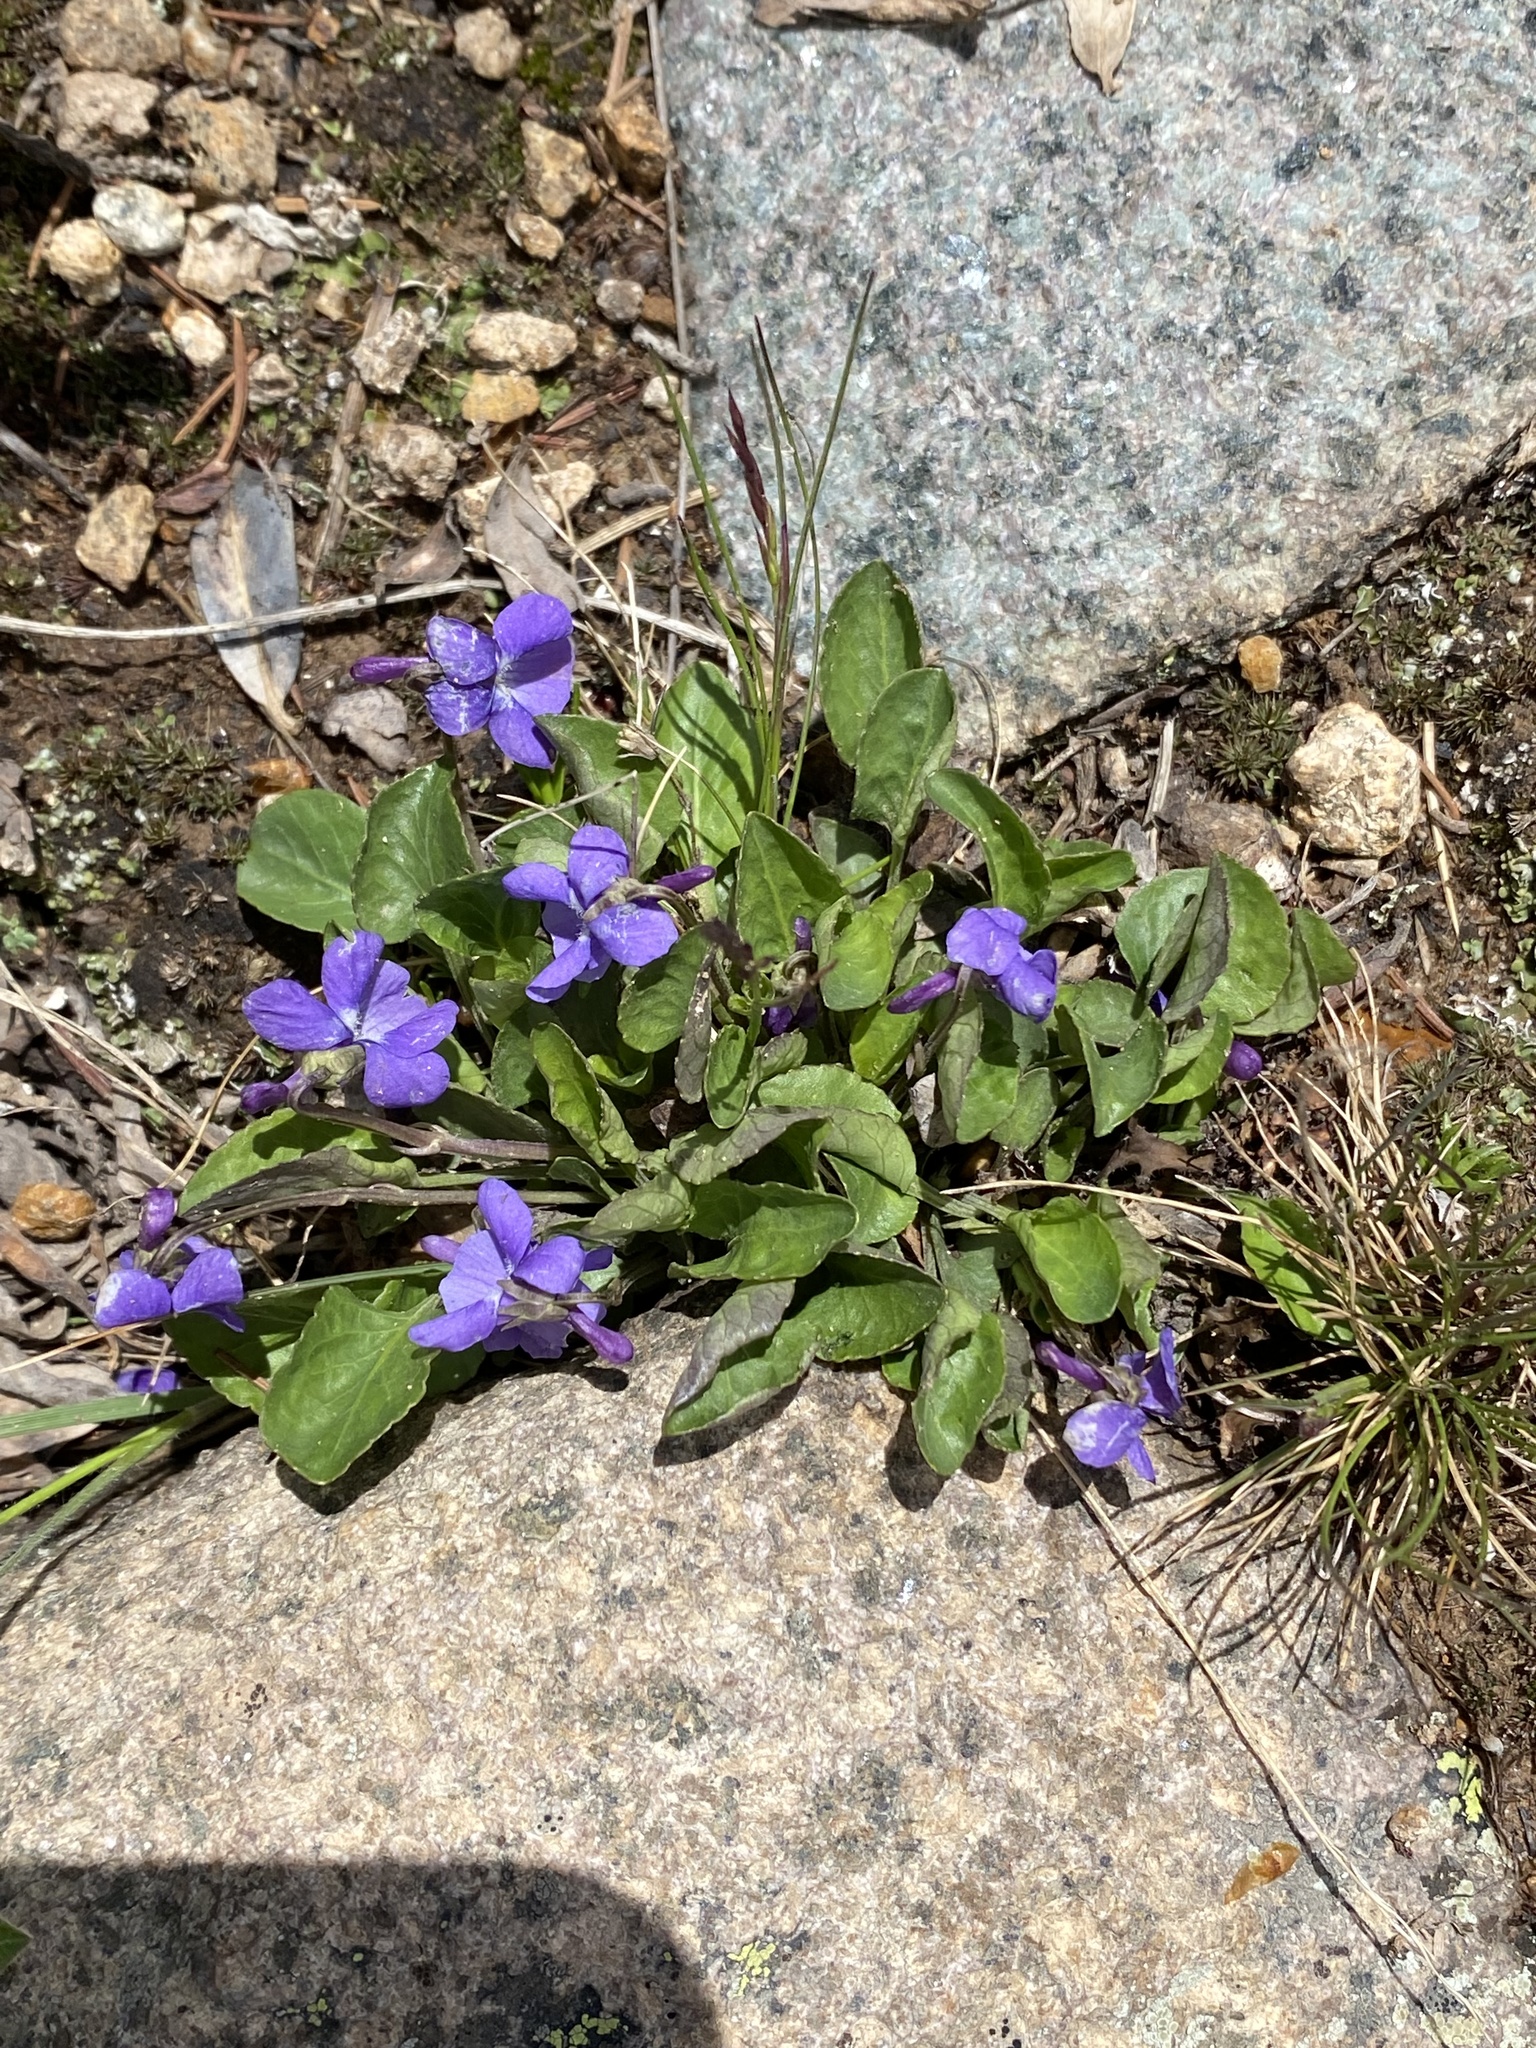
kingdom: Plantae
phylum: Tracheophyta
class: Magnoliopsida
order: Malpighiales
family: Violaceae
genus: Viola
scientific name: Viola adunca
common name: Sand violet
